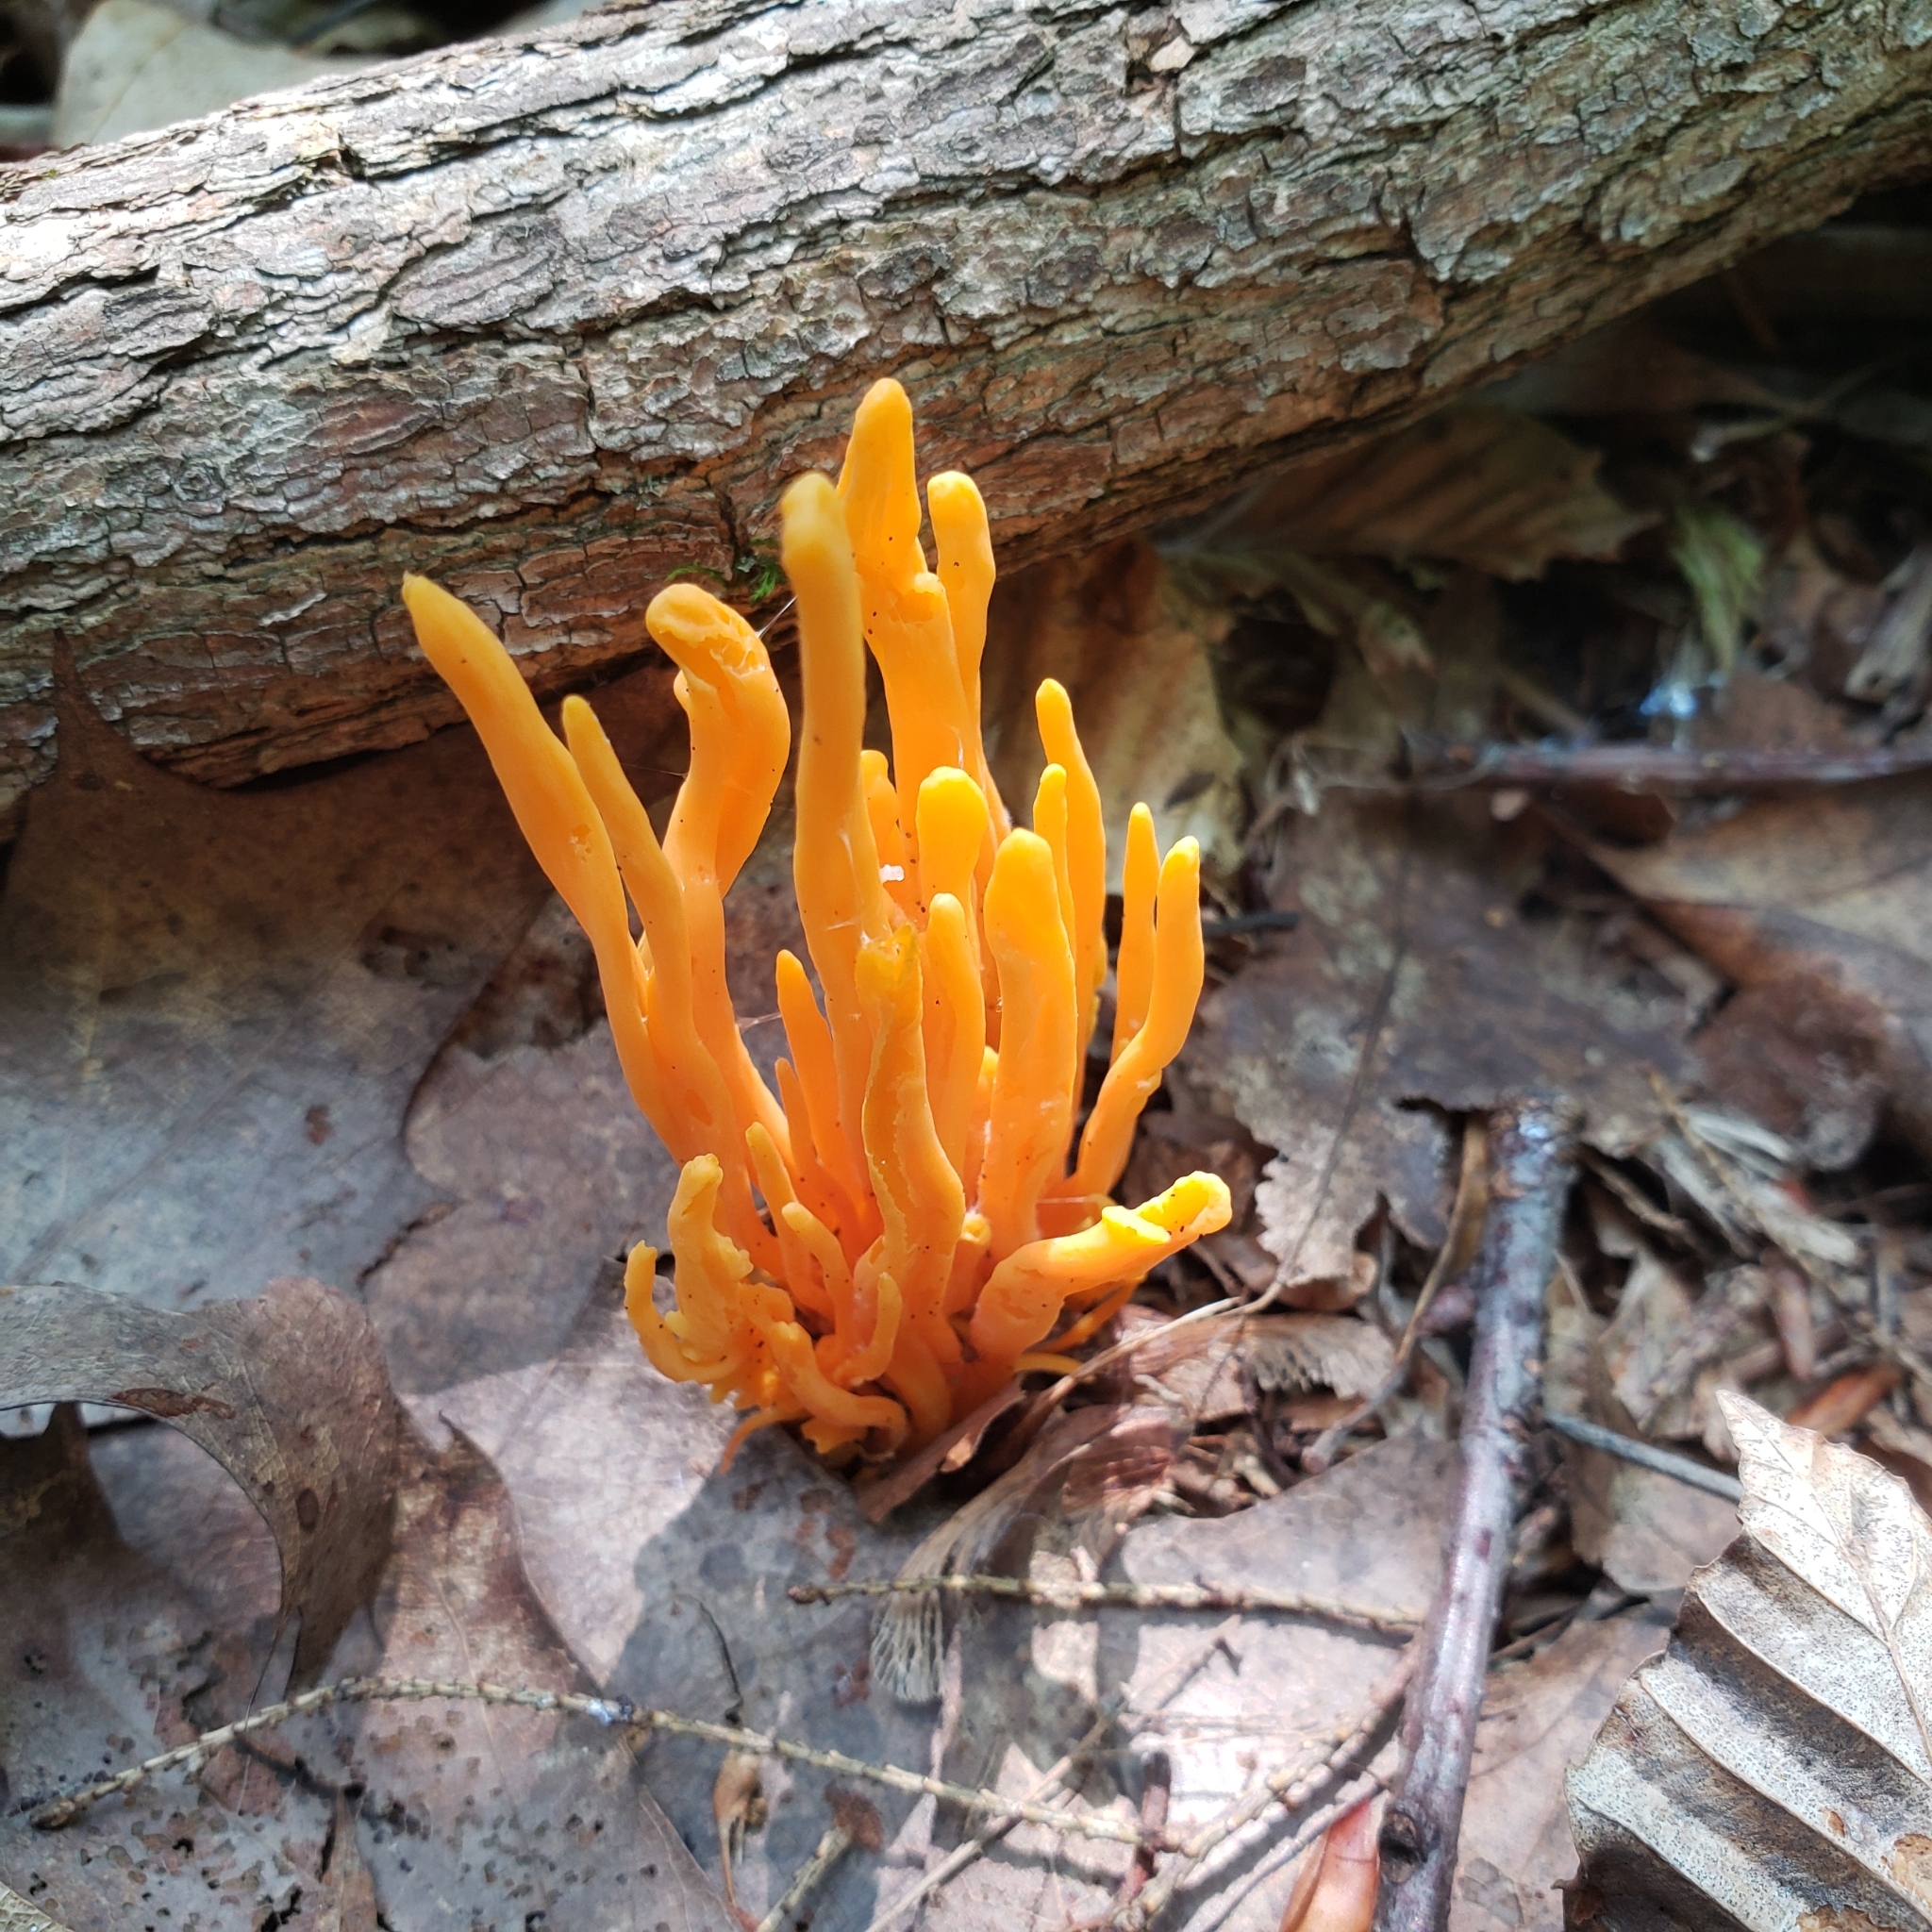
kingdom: Fungi
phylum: Basidiomycota
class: Agaricomycetes
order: Agaricales
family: Clavariaceae
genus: Clavulinopsis
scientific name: Clavulinopsis aurantiocinnabarina
